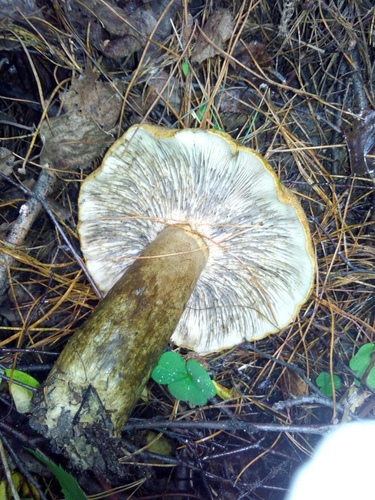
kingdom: Fungi
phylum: Basidiomycota
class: Agaricomycetes
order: Russulales
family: Russulaceae
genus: Lactarius
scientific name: Lactarius turpis
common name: Ugly milk-cap
